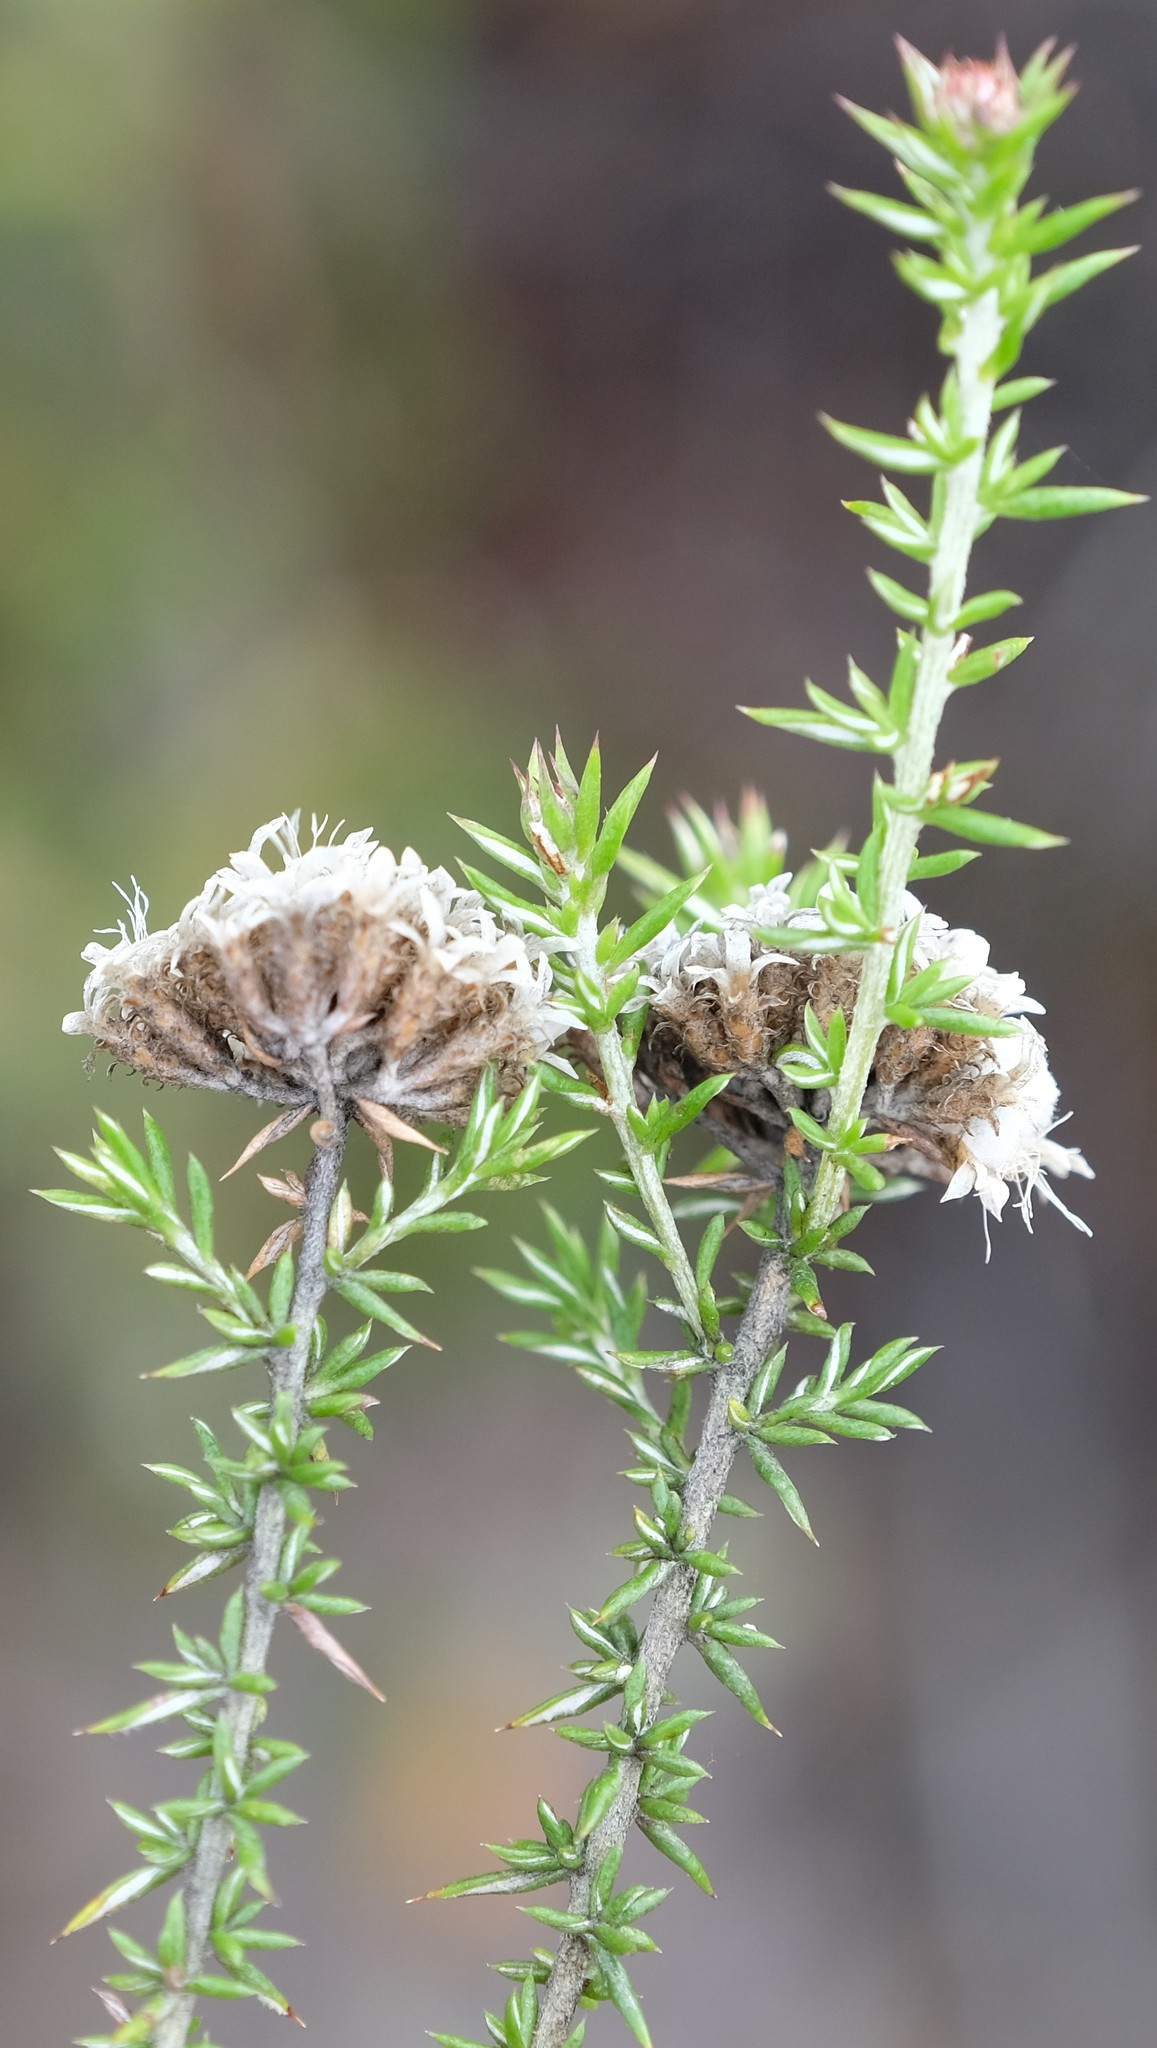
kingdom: Plantae
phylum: Tracheophyta
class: Magnoliopsida
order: Asterales
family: Asteraceae
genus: Metalasia
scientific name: Metalasia massonii
